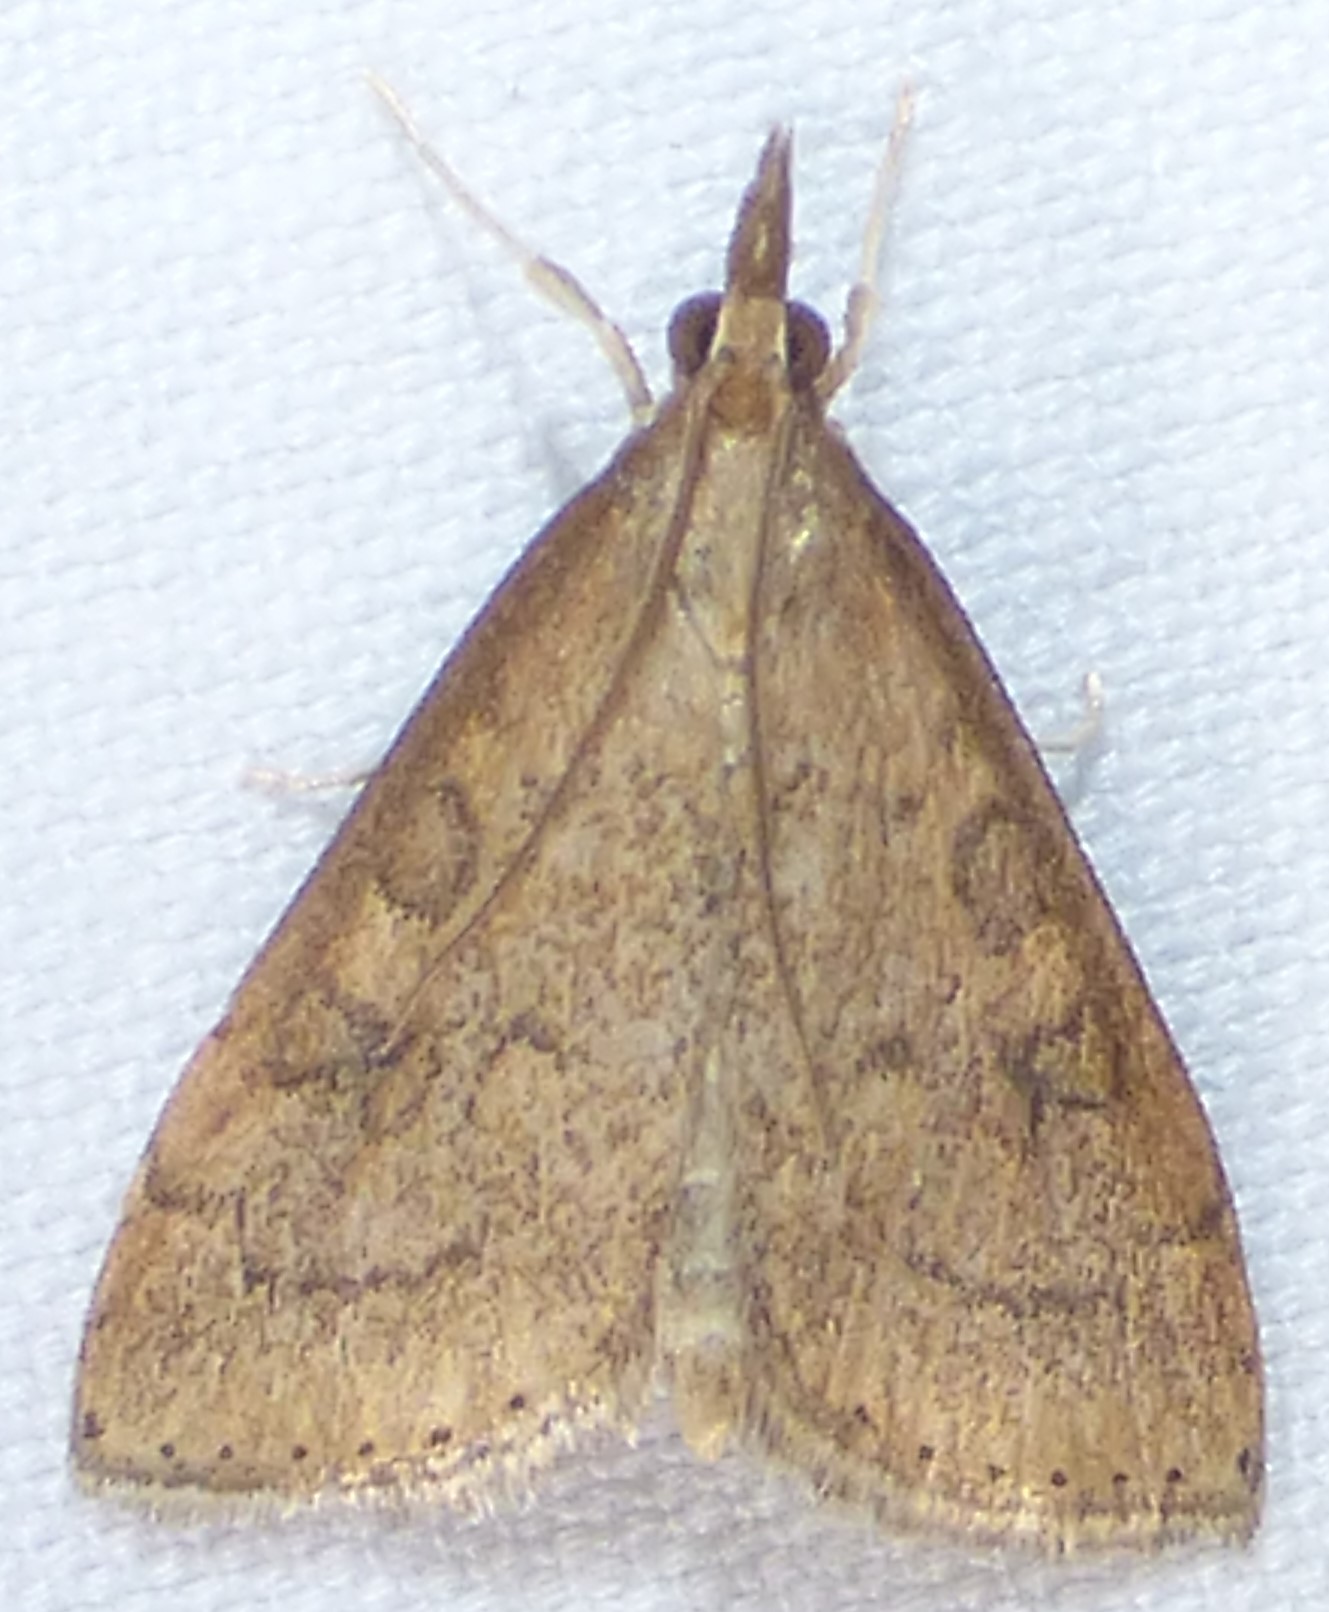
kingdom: Animalia
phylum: Arthropoda
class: Insecta
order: Lepidoptera
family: Crambidae
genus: Udea
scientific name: Udea rubigalis
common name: Celery leaftier moth
